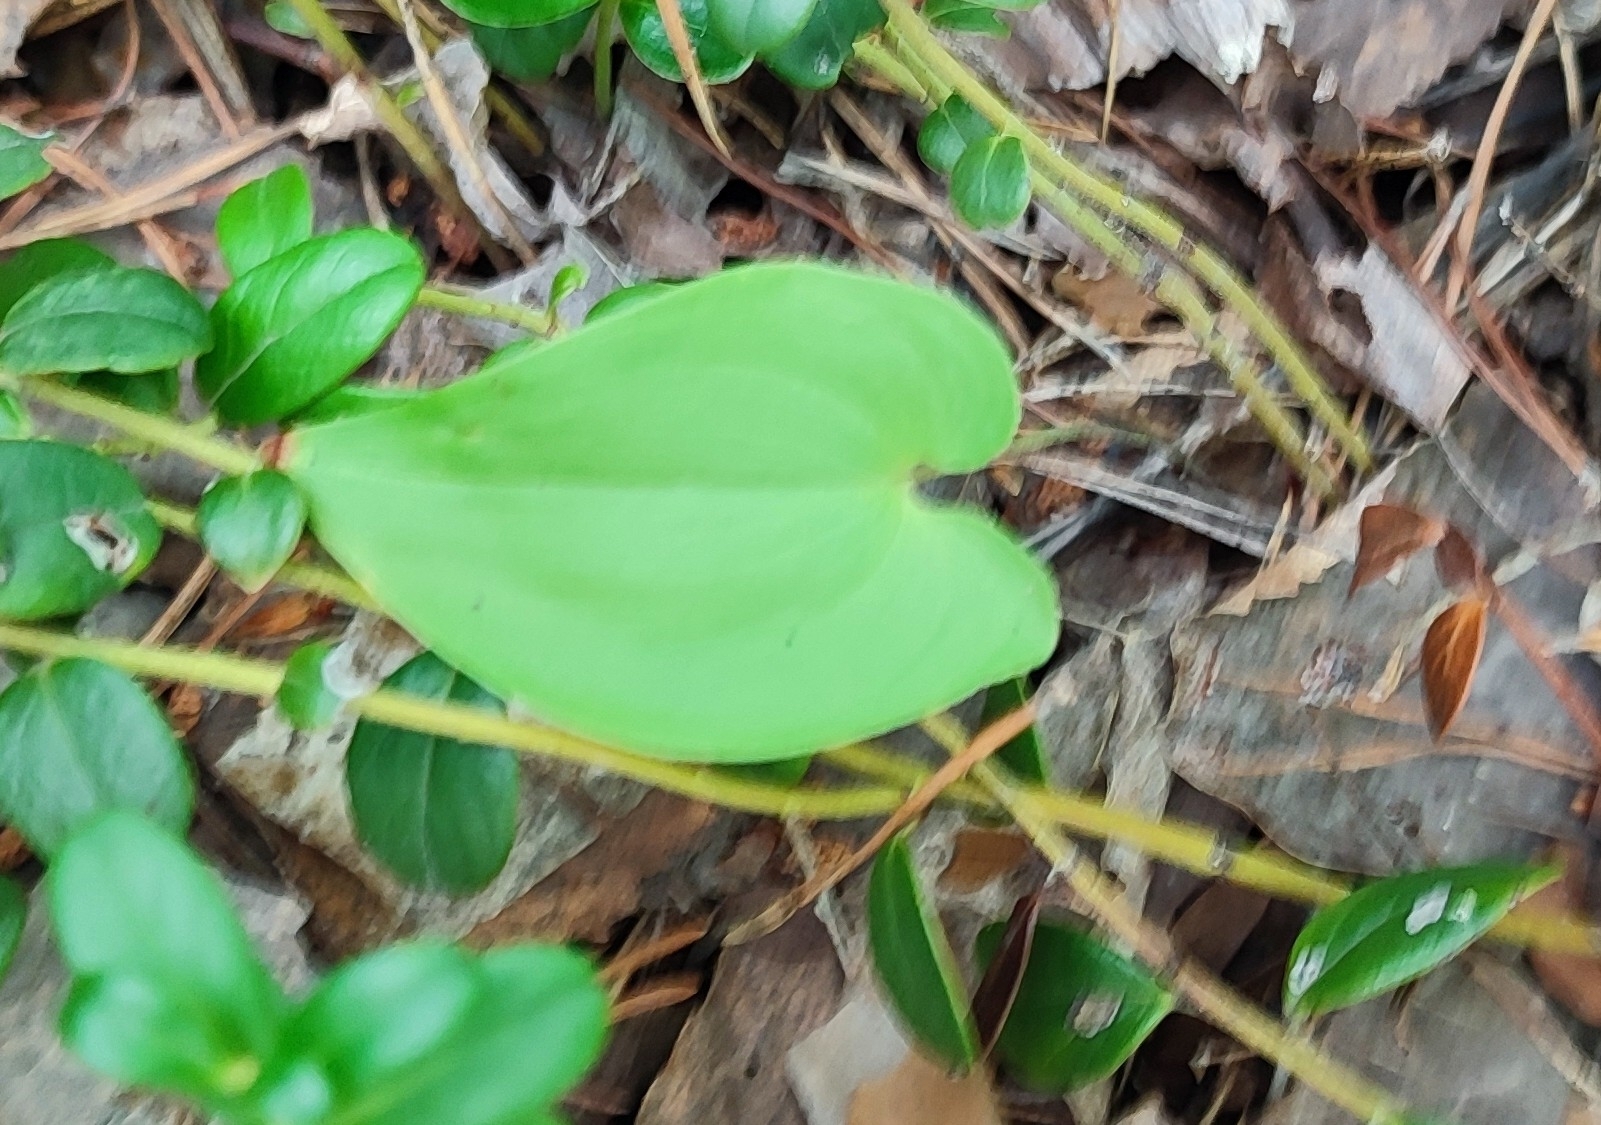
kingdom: Plantae
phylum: Tracheophyta
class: Liliopsida
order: Asparagales
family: Asparagaceae
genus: Maianthemum
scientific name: Maianthemum bifolium
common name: May lily
